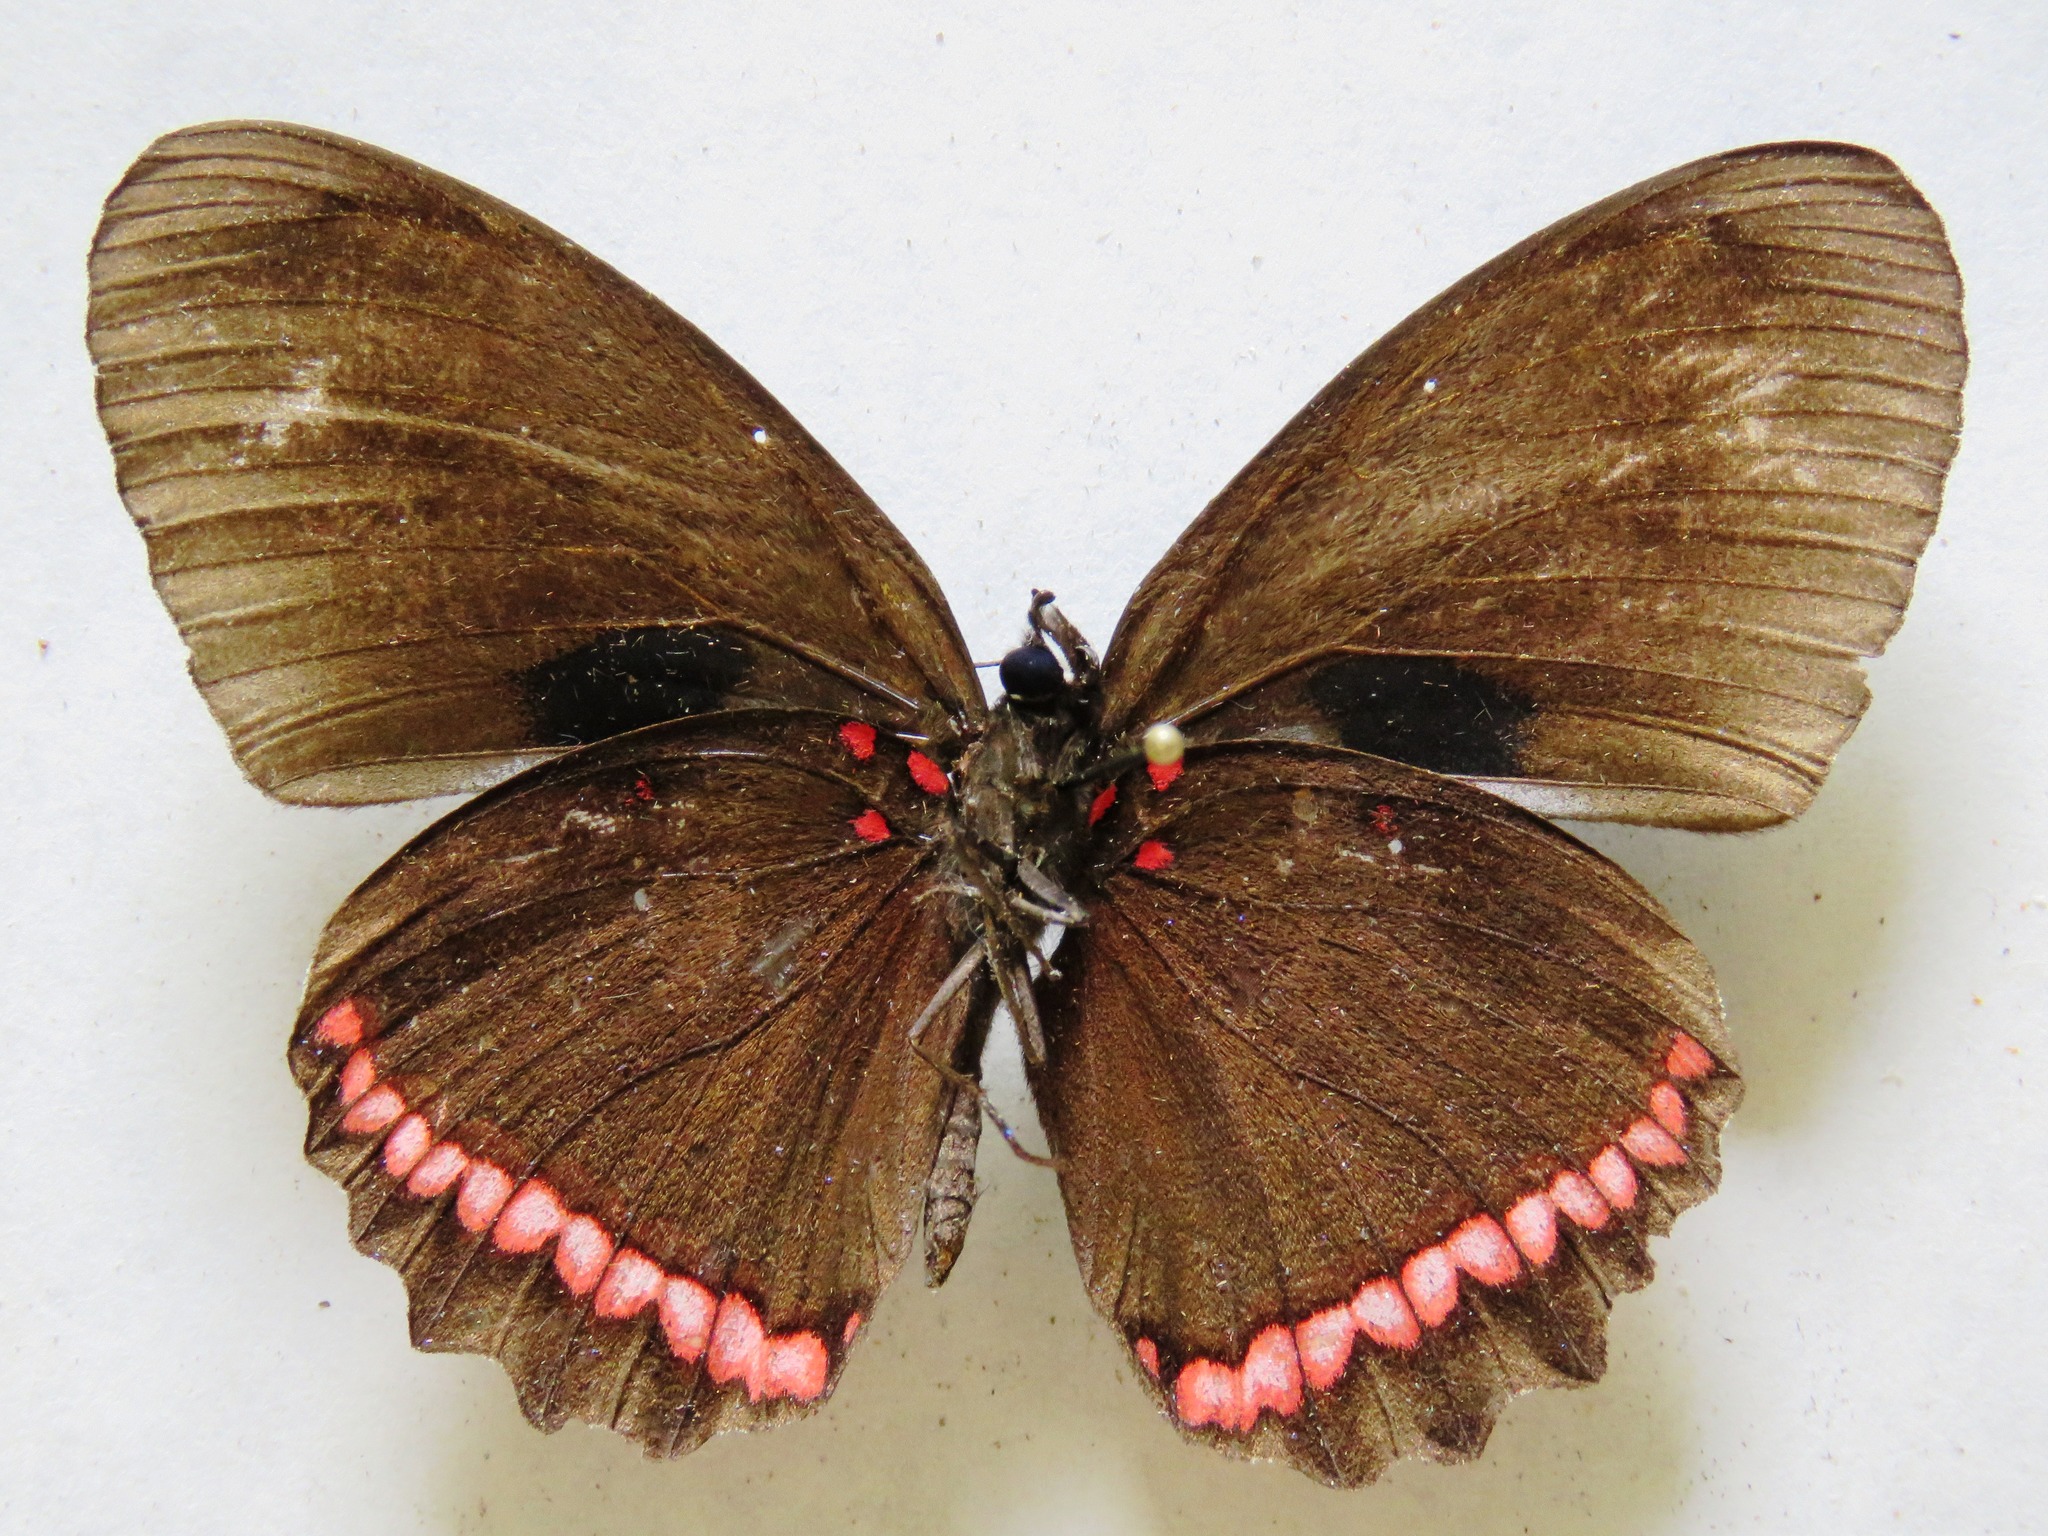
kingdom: Animalia
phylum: Arthropoda
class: Insecta
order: Lepidoptera
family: Nymphalidae
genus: Biblis
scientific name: Biblis aganisa
